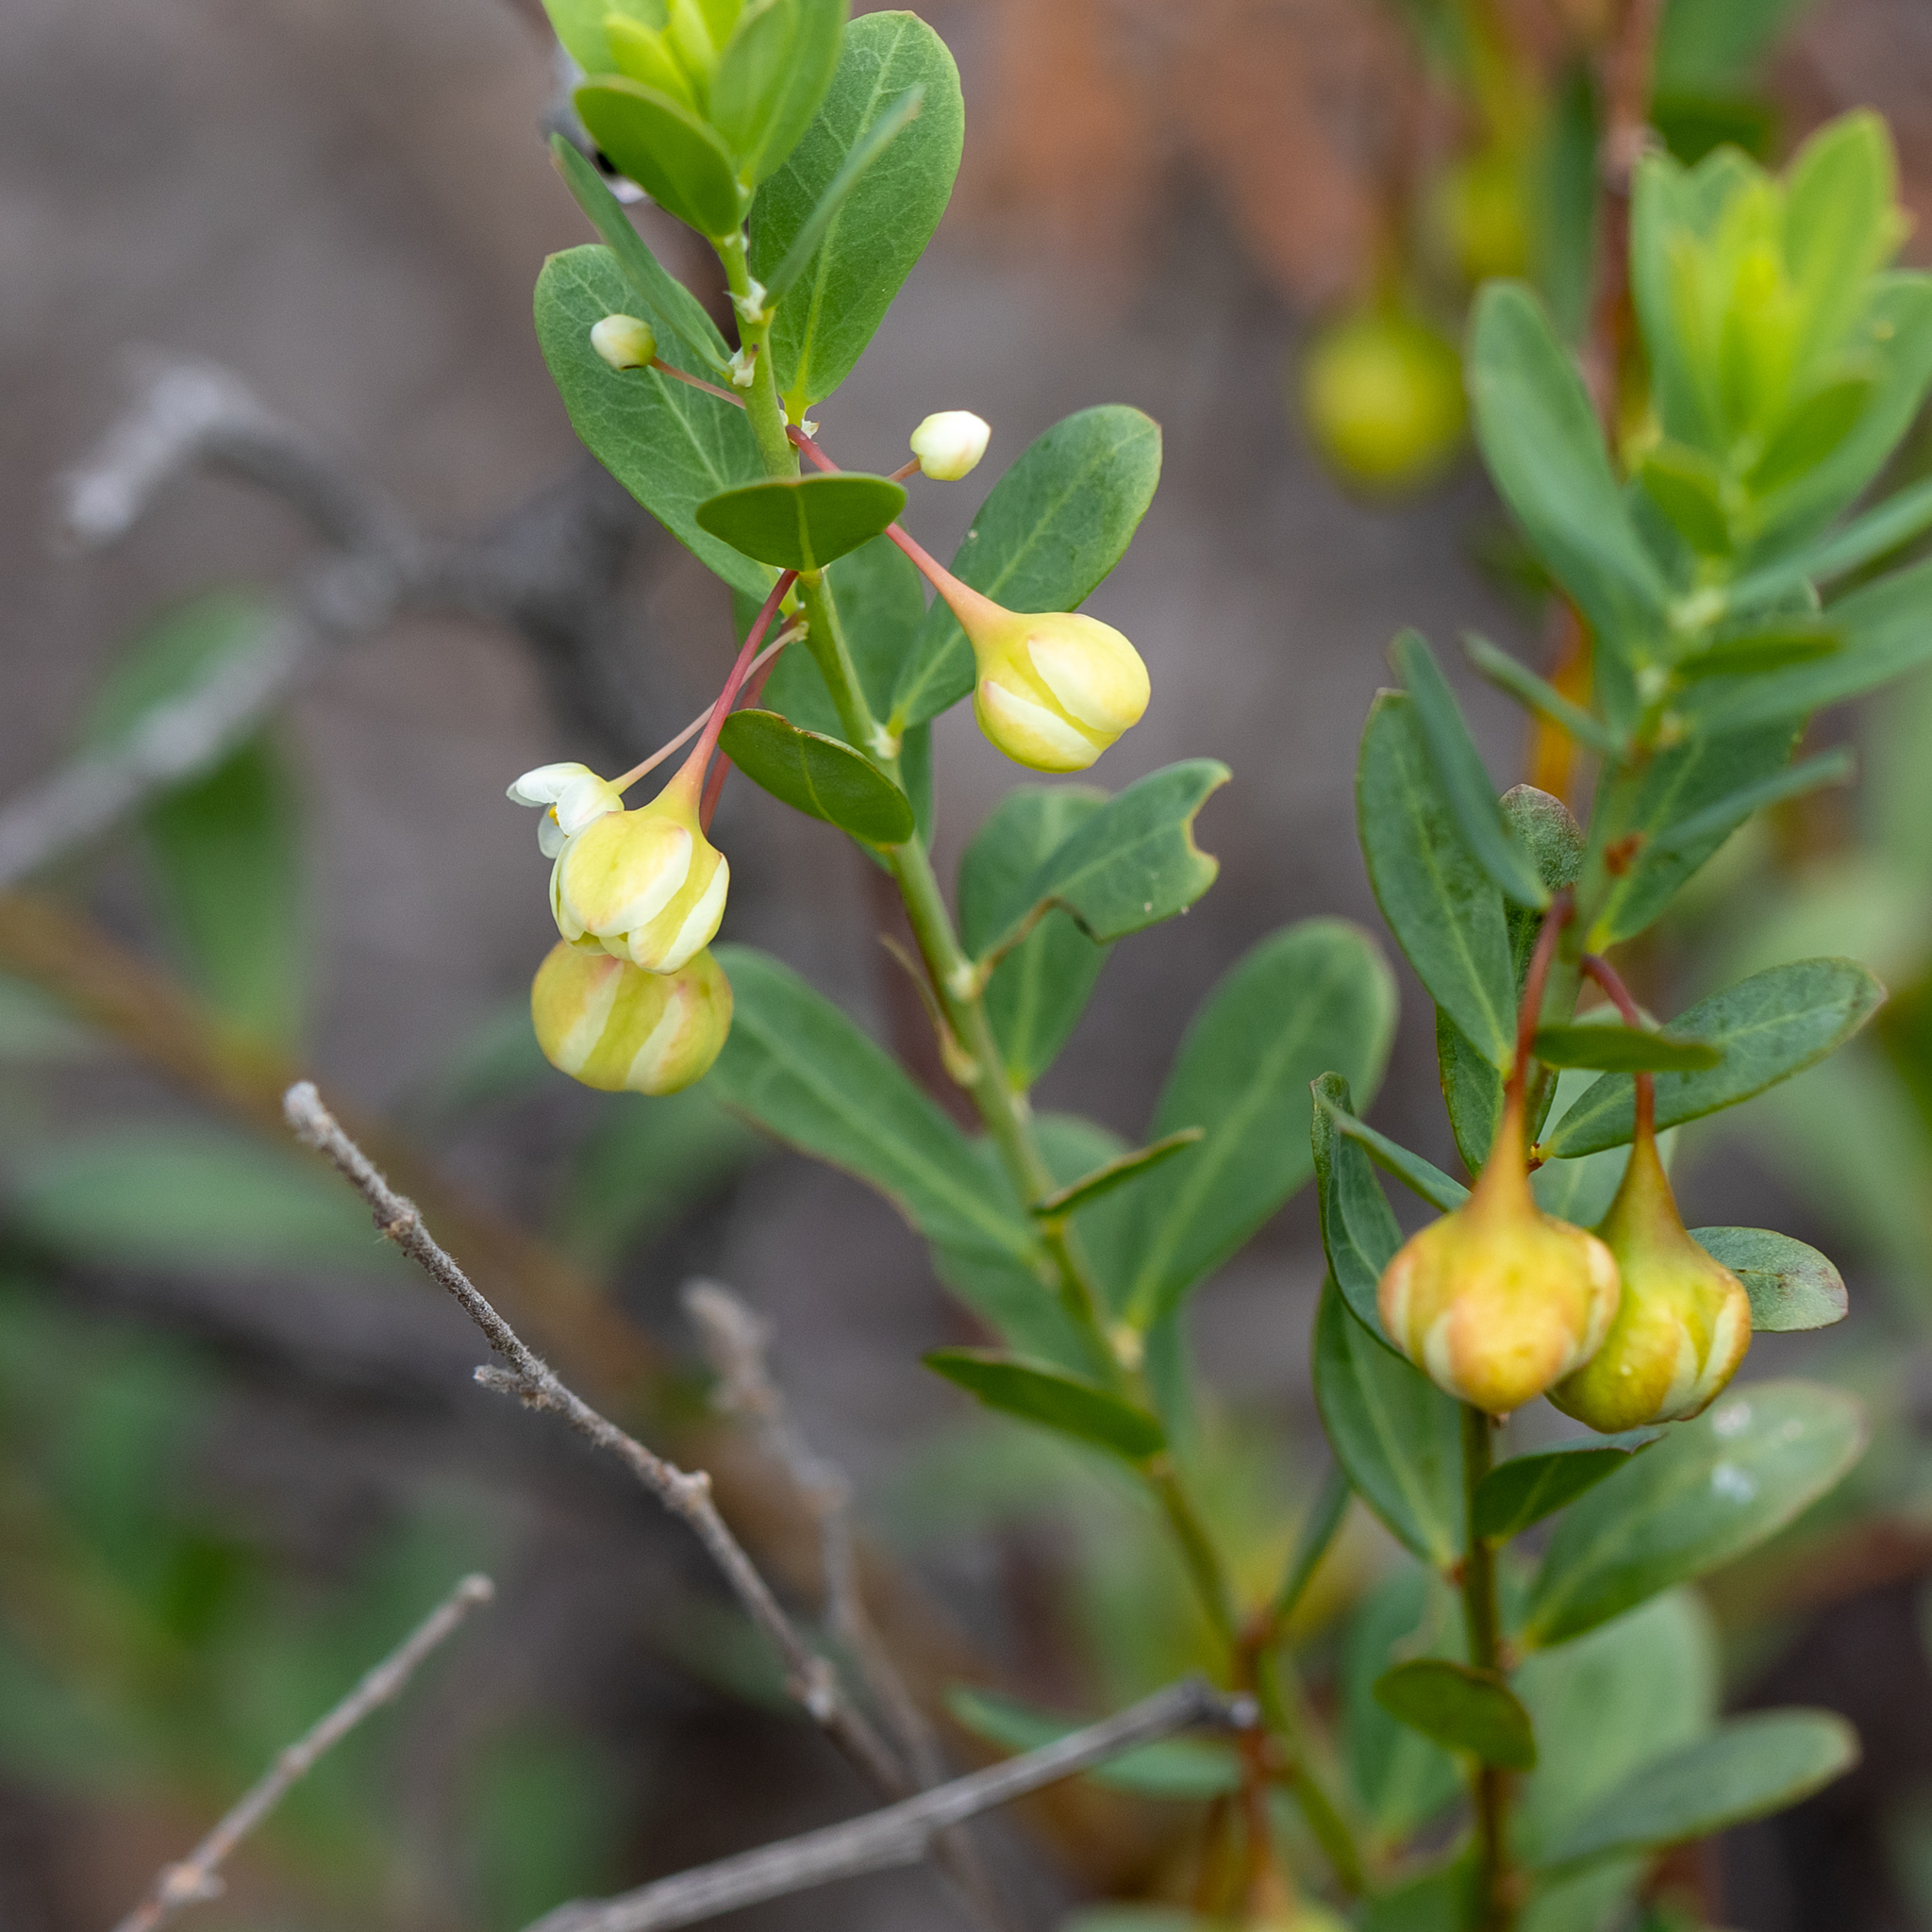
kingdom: Plantae
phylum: Tracheophyta
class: Magnoliopsida
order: Malpighiales
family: Phyllanthaceae
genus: Phyllanthus
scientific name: Phyllanthus calycinus
